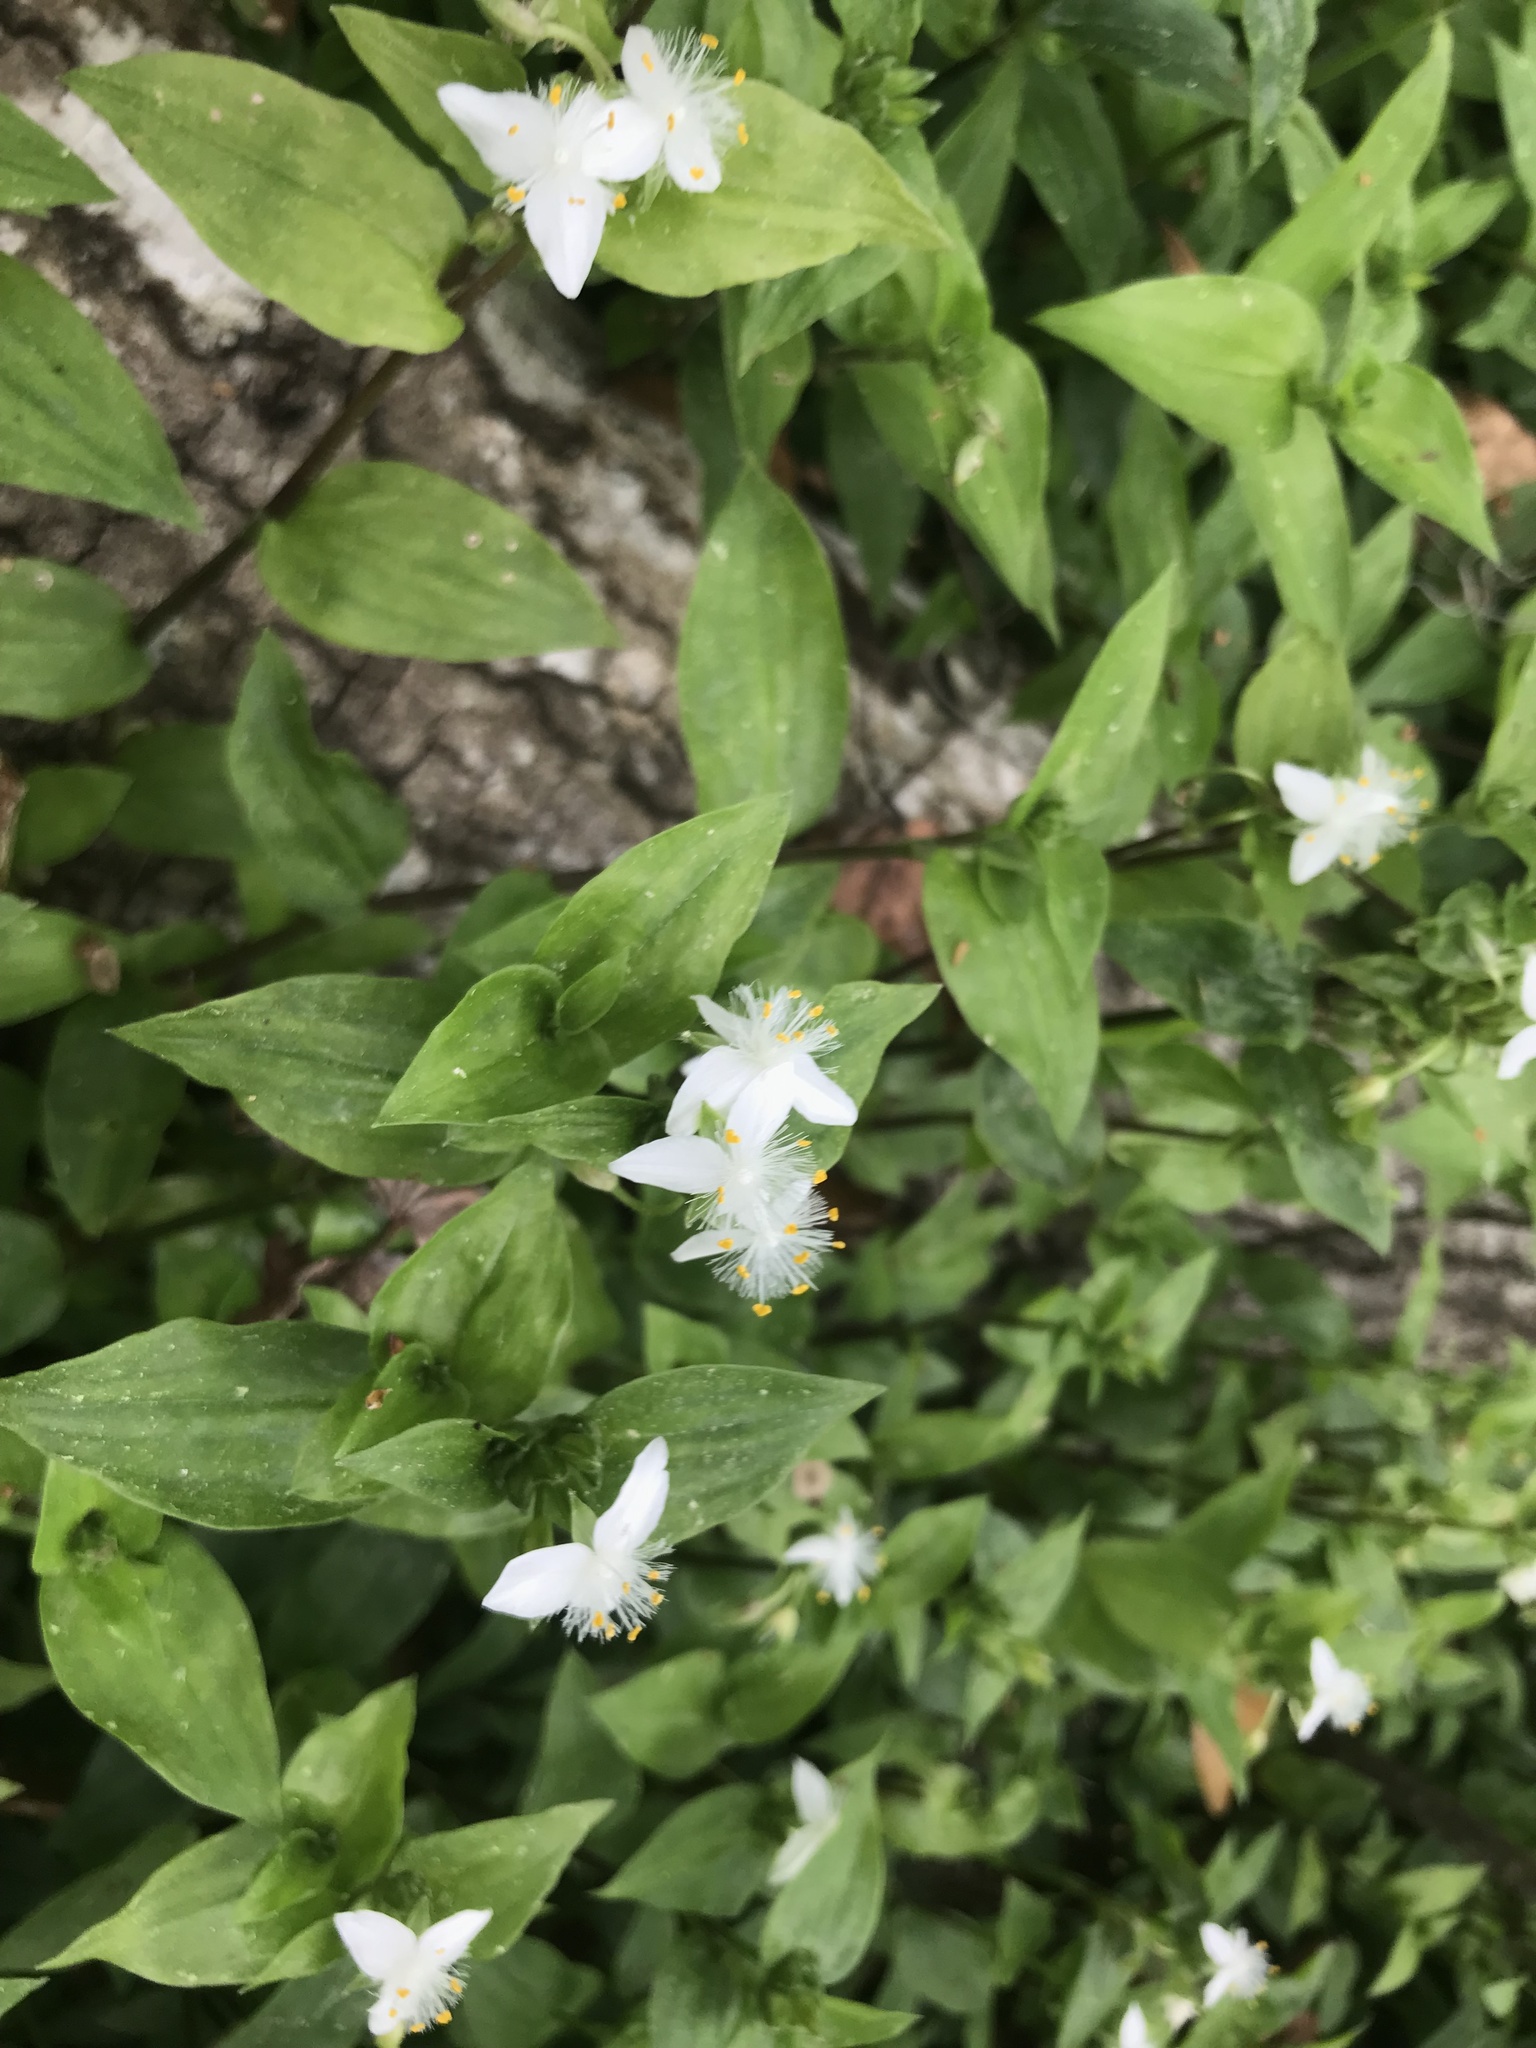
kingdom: Plantae
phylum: Tracheophyta
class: Liliopsida
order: Commelinales
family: Commelinaceae
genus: Tradescantia
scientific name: Tradescantia fluminensis
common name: Wandering-jew
